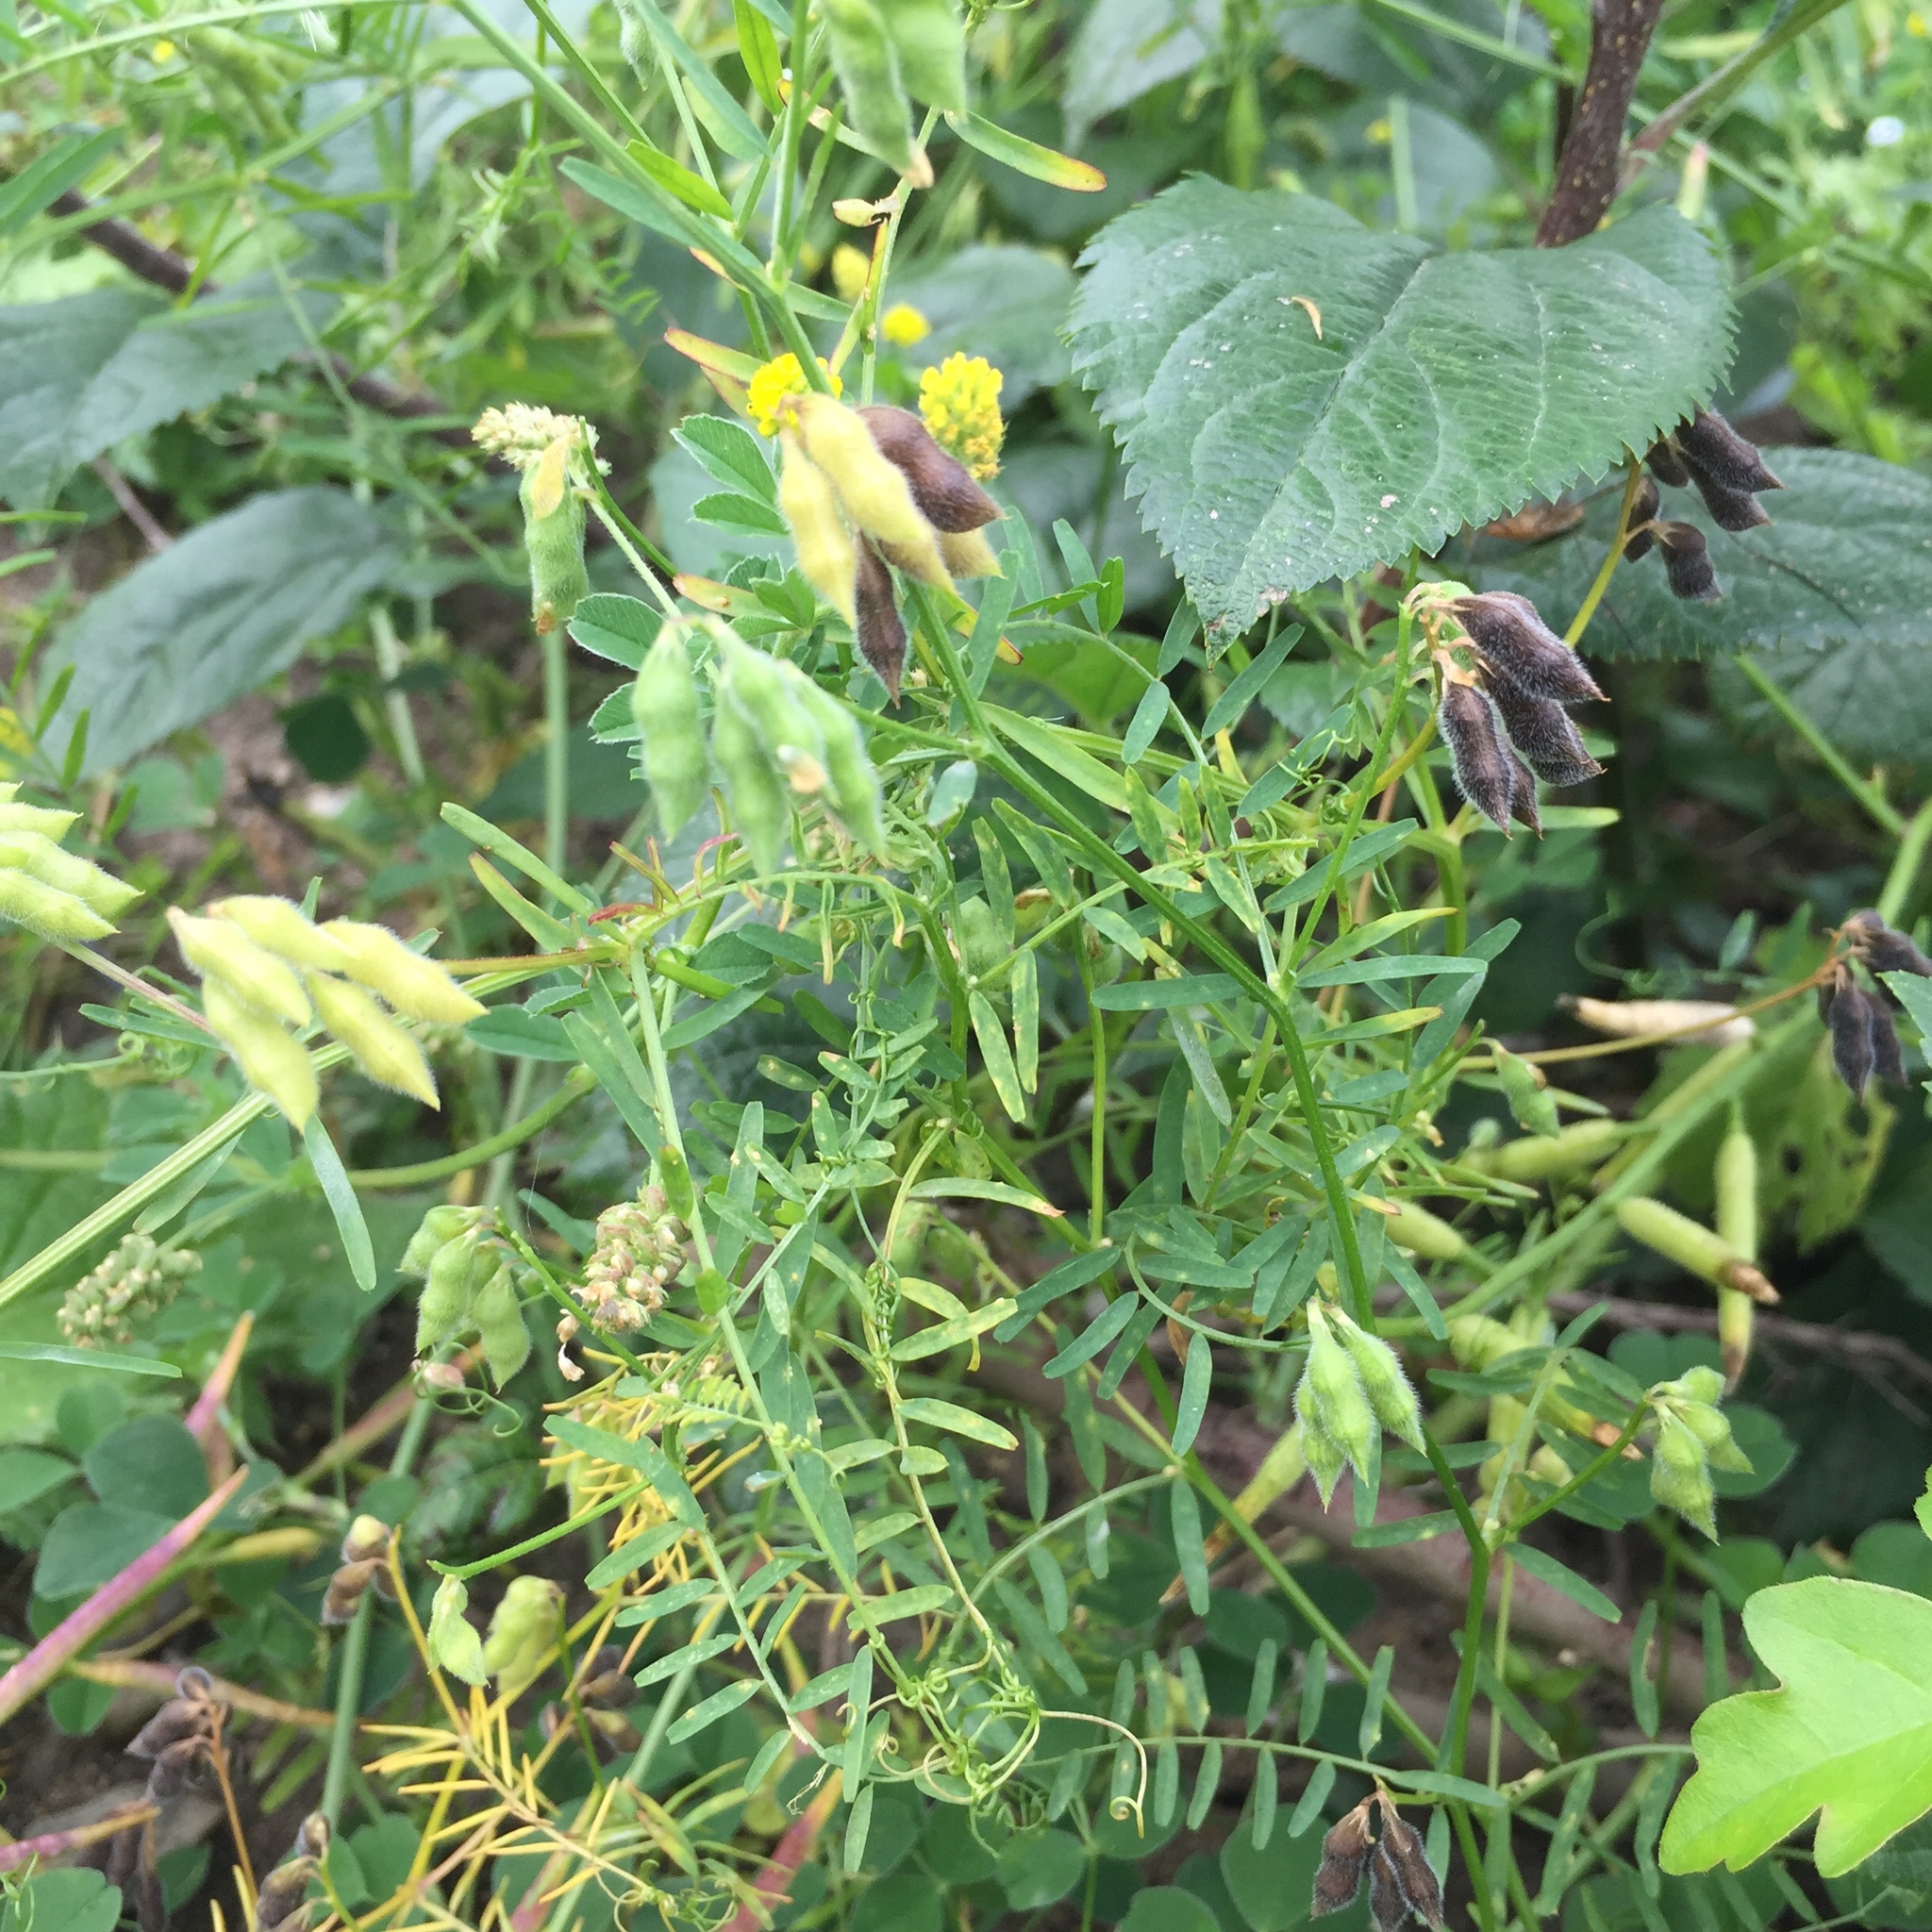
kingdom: Plantae
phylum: Tracheophyta
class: Magnoliopsida
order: Fabales
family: Fabaceae
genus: Vicia
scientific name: Vicia hirsuta
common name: Tiny vetch
